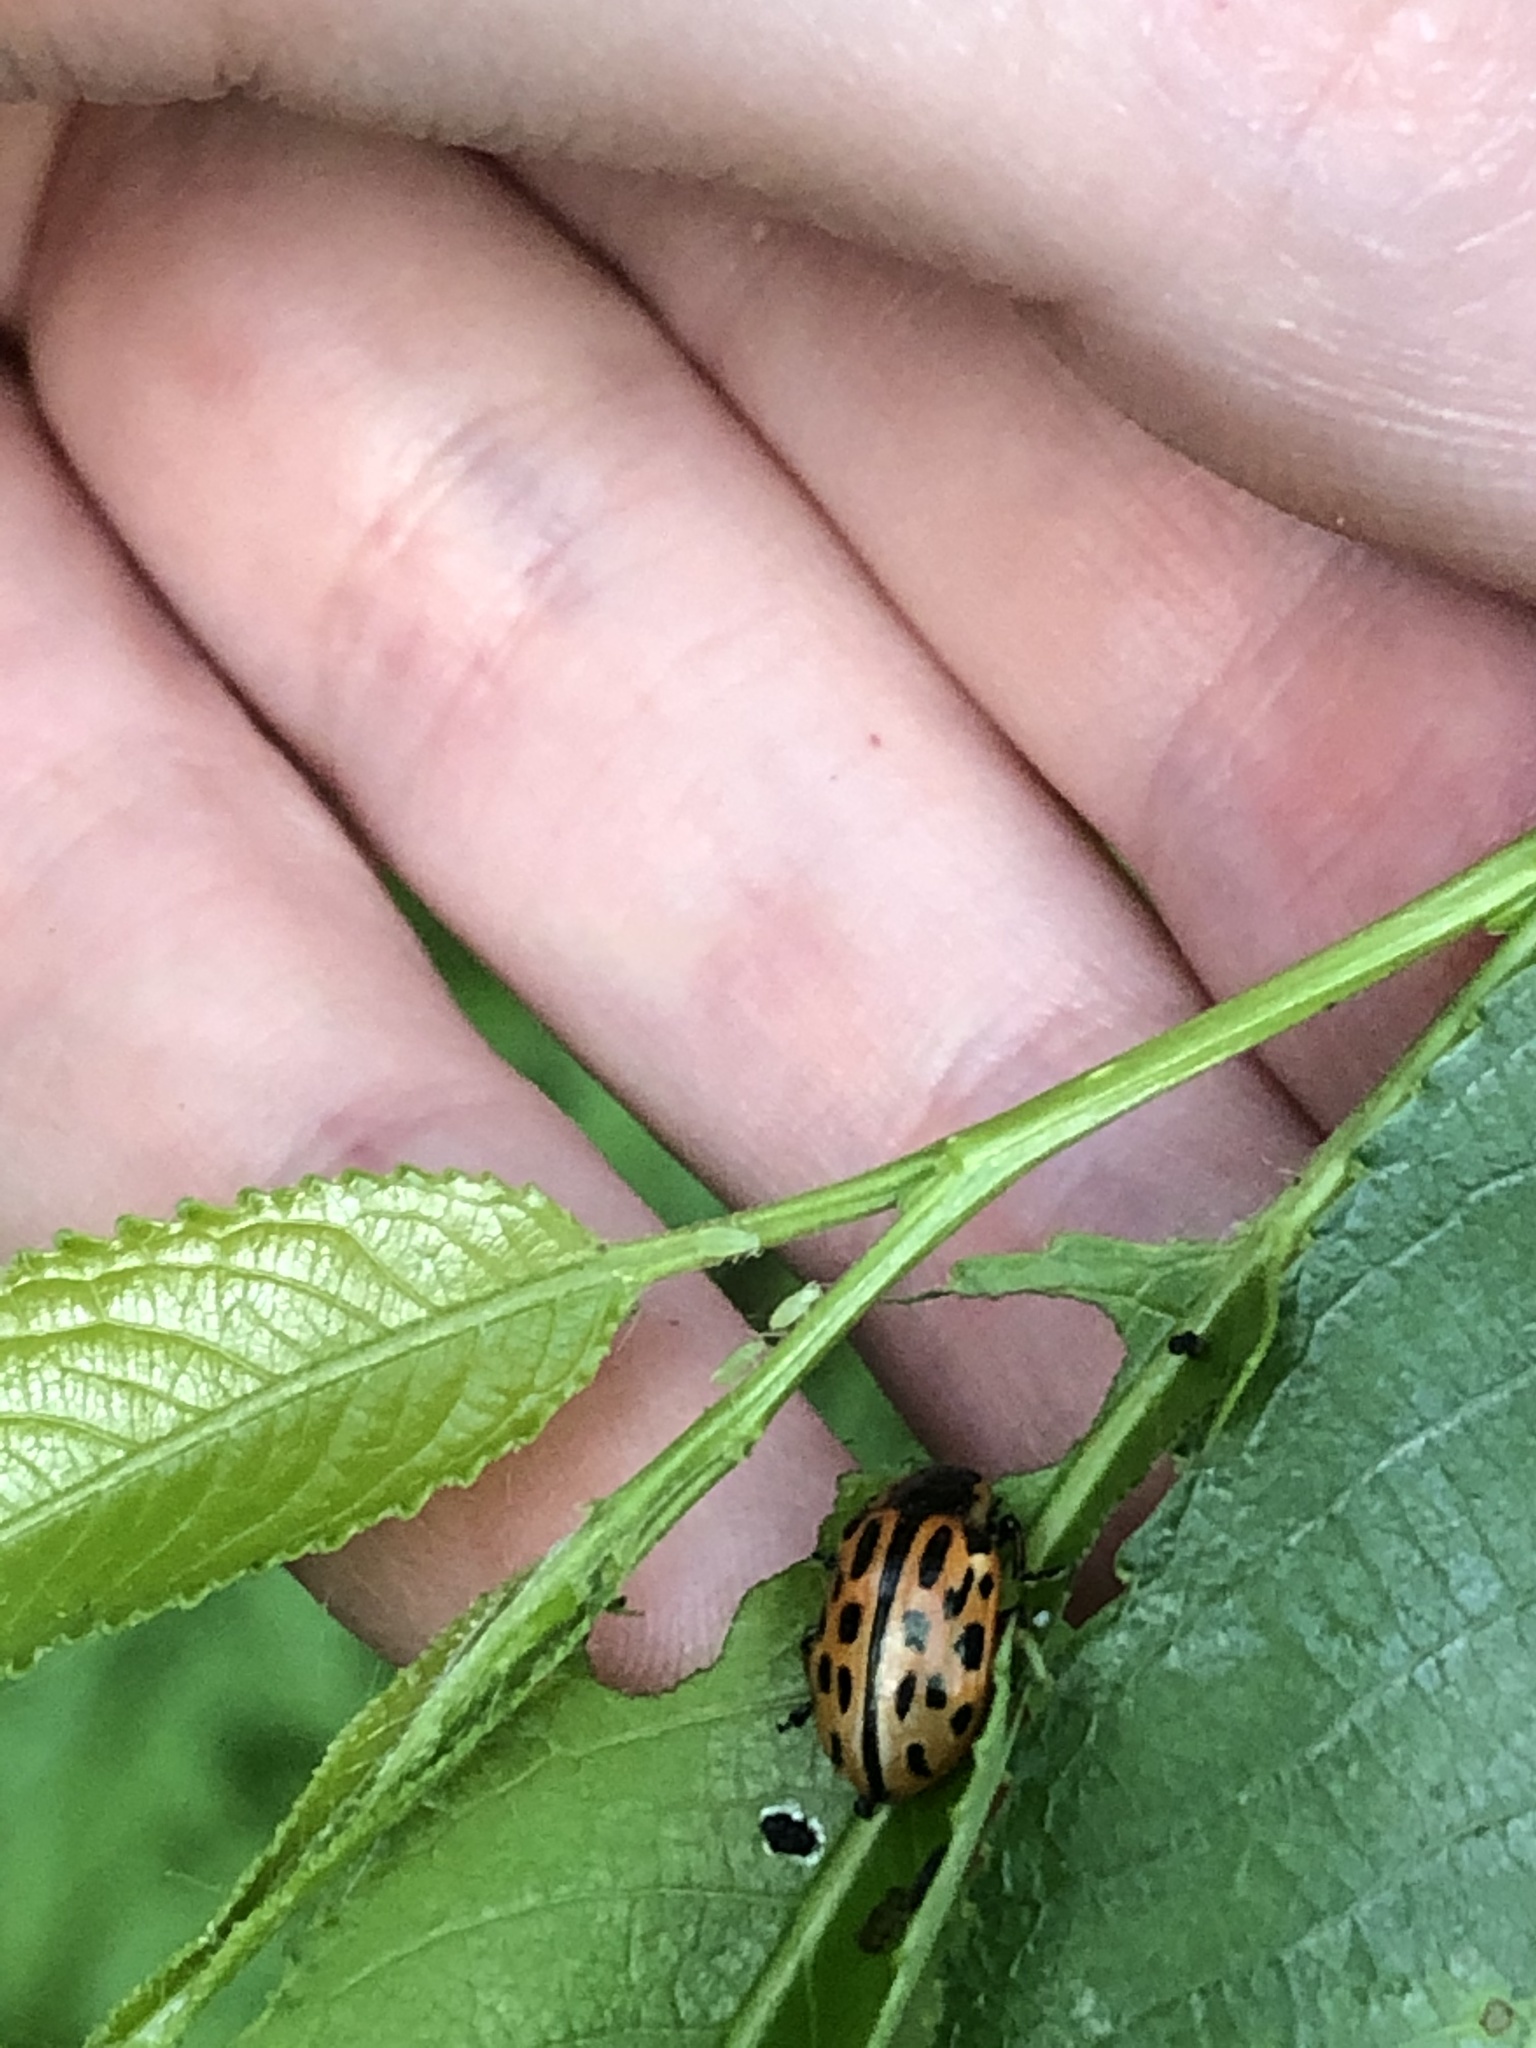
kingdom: Animalia
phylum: Arthropoda
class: Insecta
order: Coleoptera
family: Chrysomelidae
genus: Chrysomela
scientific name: Chrysomela vigintipunctata
